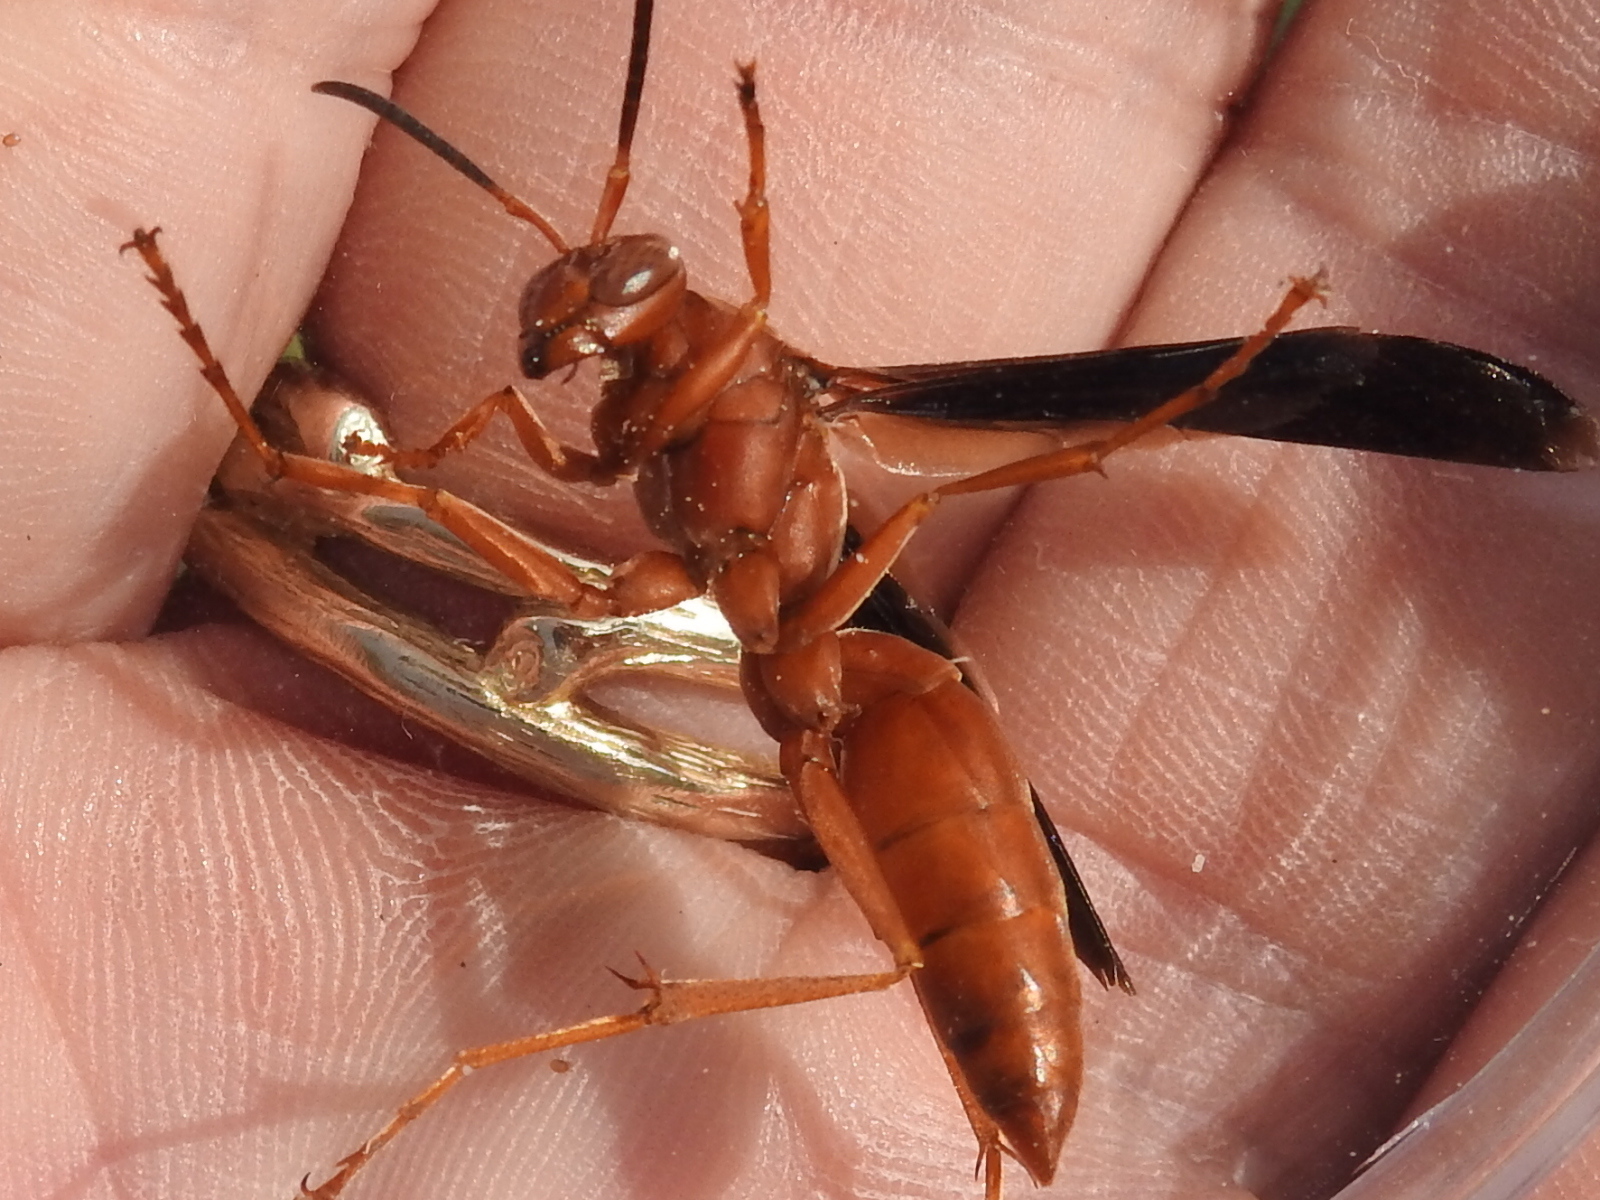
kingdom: Animalia
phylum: Arthropoda
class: Insecta
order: Hymenoptera
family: Eumenidae
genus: Polistes
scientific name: Polistes carolina
